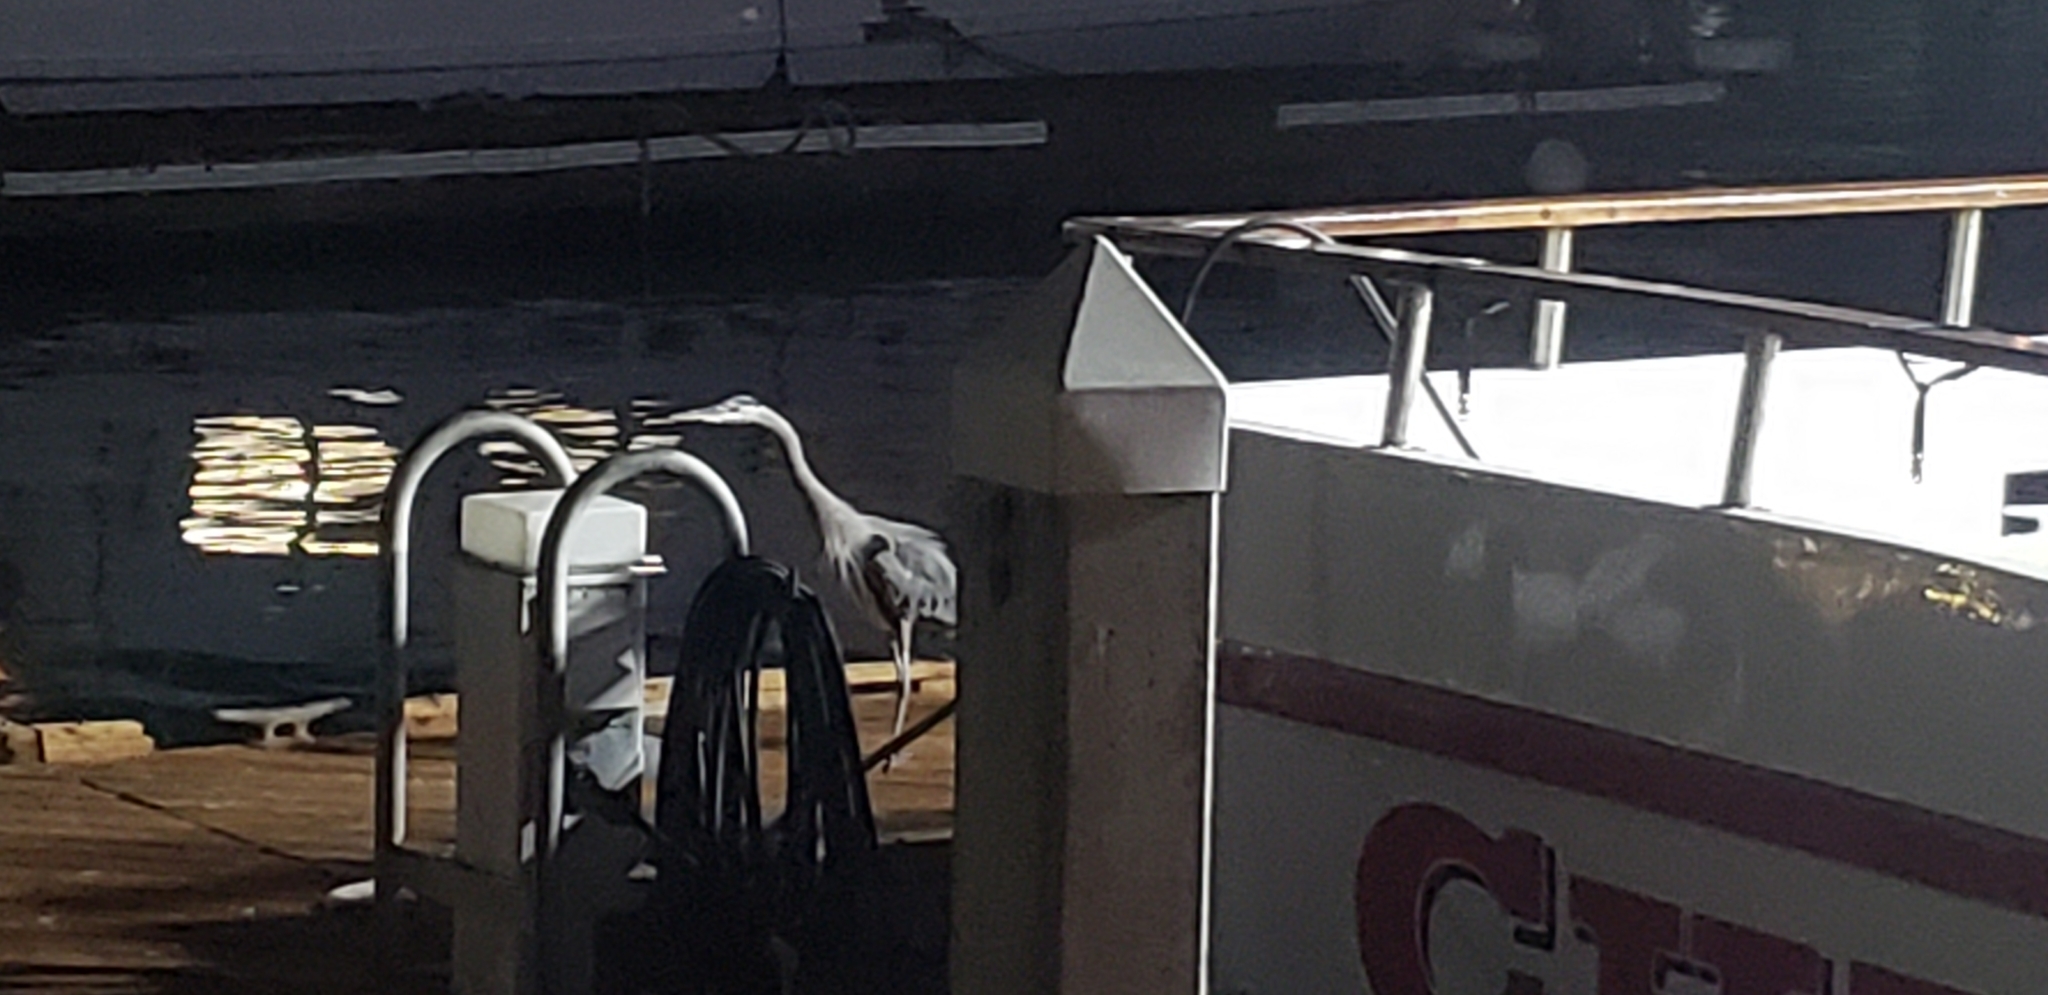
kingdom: Animalia
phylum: Chordata
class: Aves
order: Pelecaniformes
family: Ardeidae
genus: Ardea
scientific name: Ardea herodias
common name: Great blue heron
